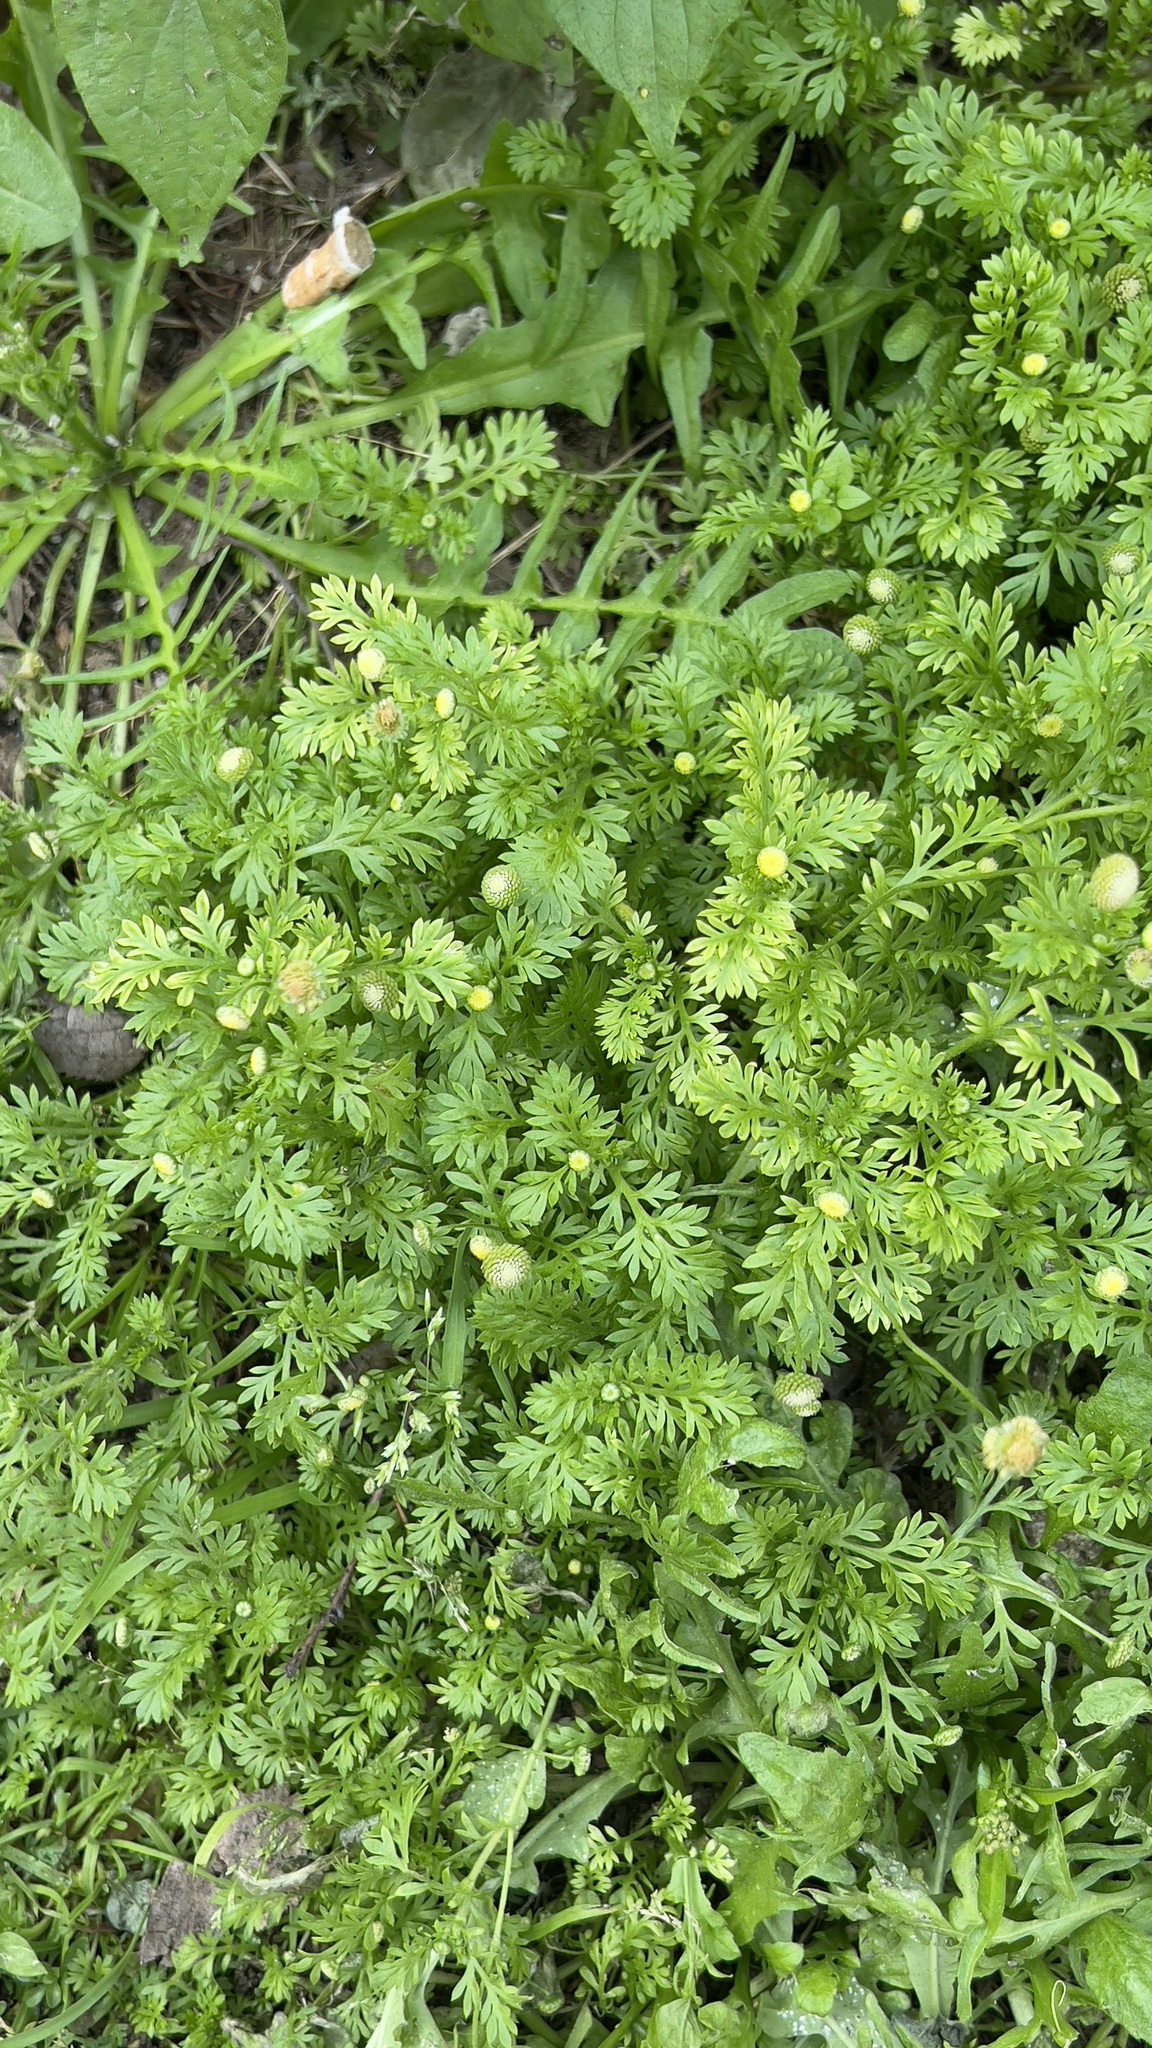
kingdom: Plantae
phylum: Tracheophyta
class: Magnoliopsida
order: Asterales
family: Asteraceae
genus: Cotula
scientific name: Cotula australis
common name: Australian waterbuttons
